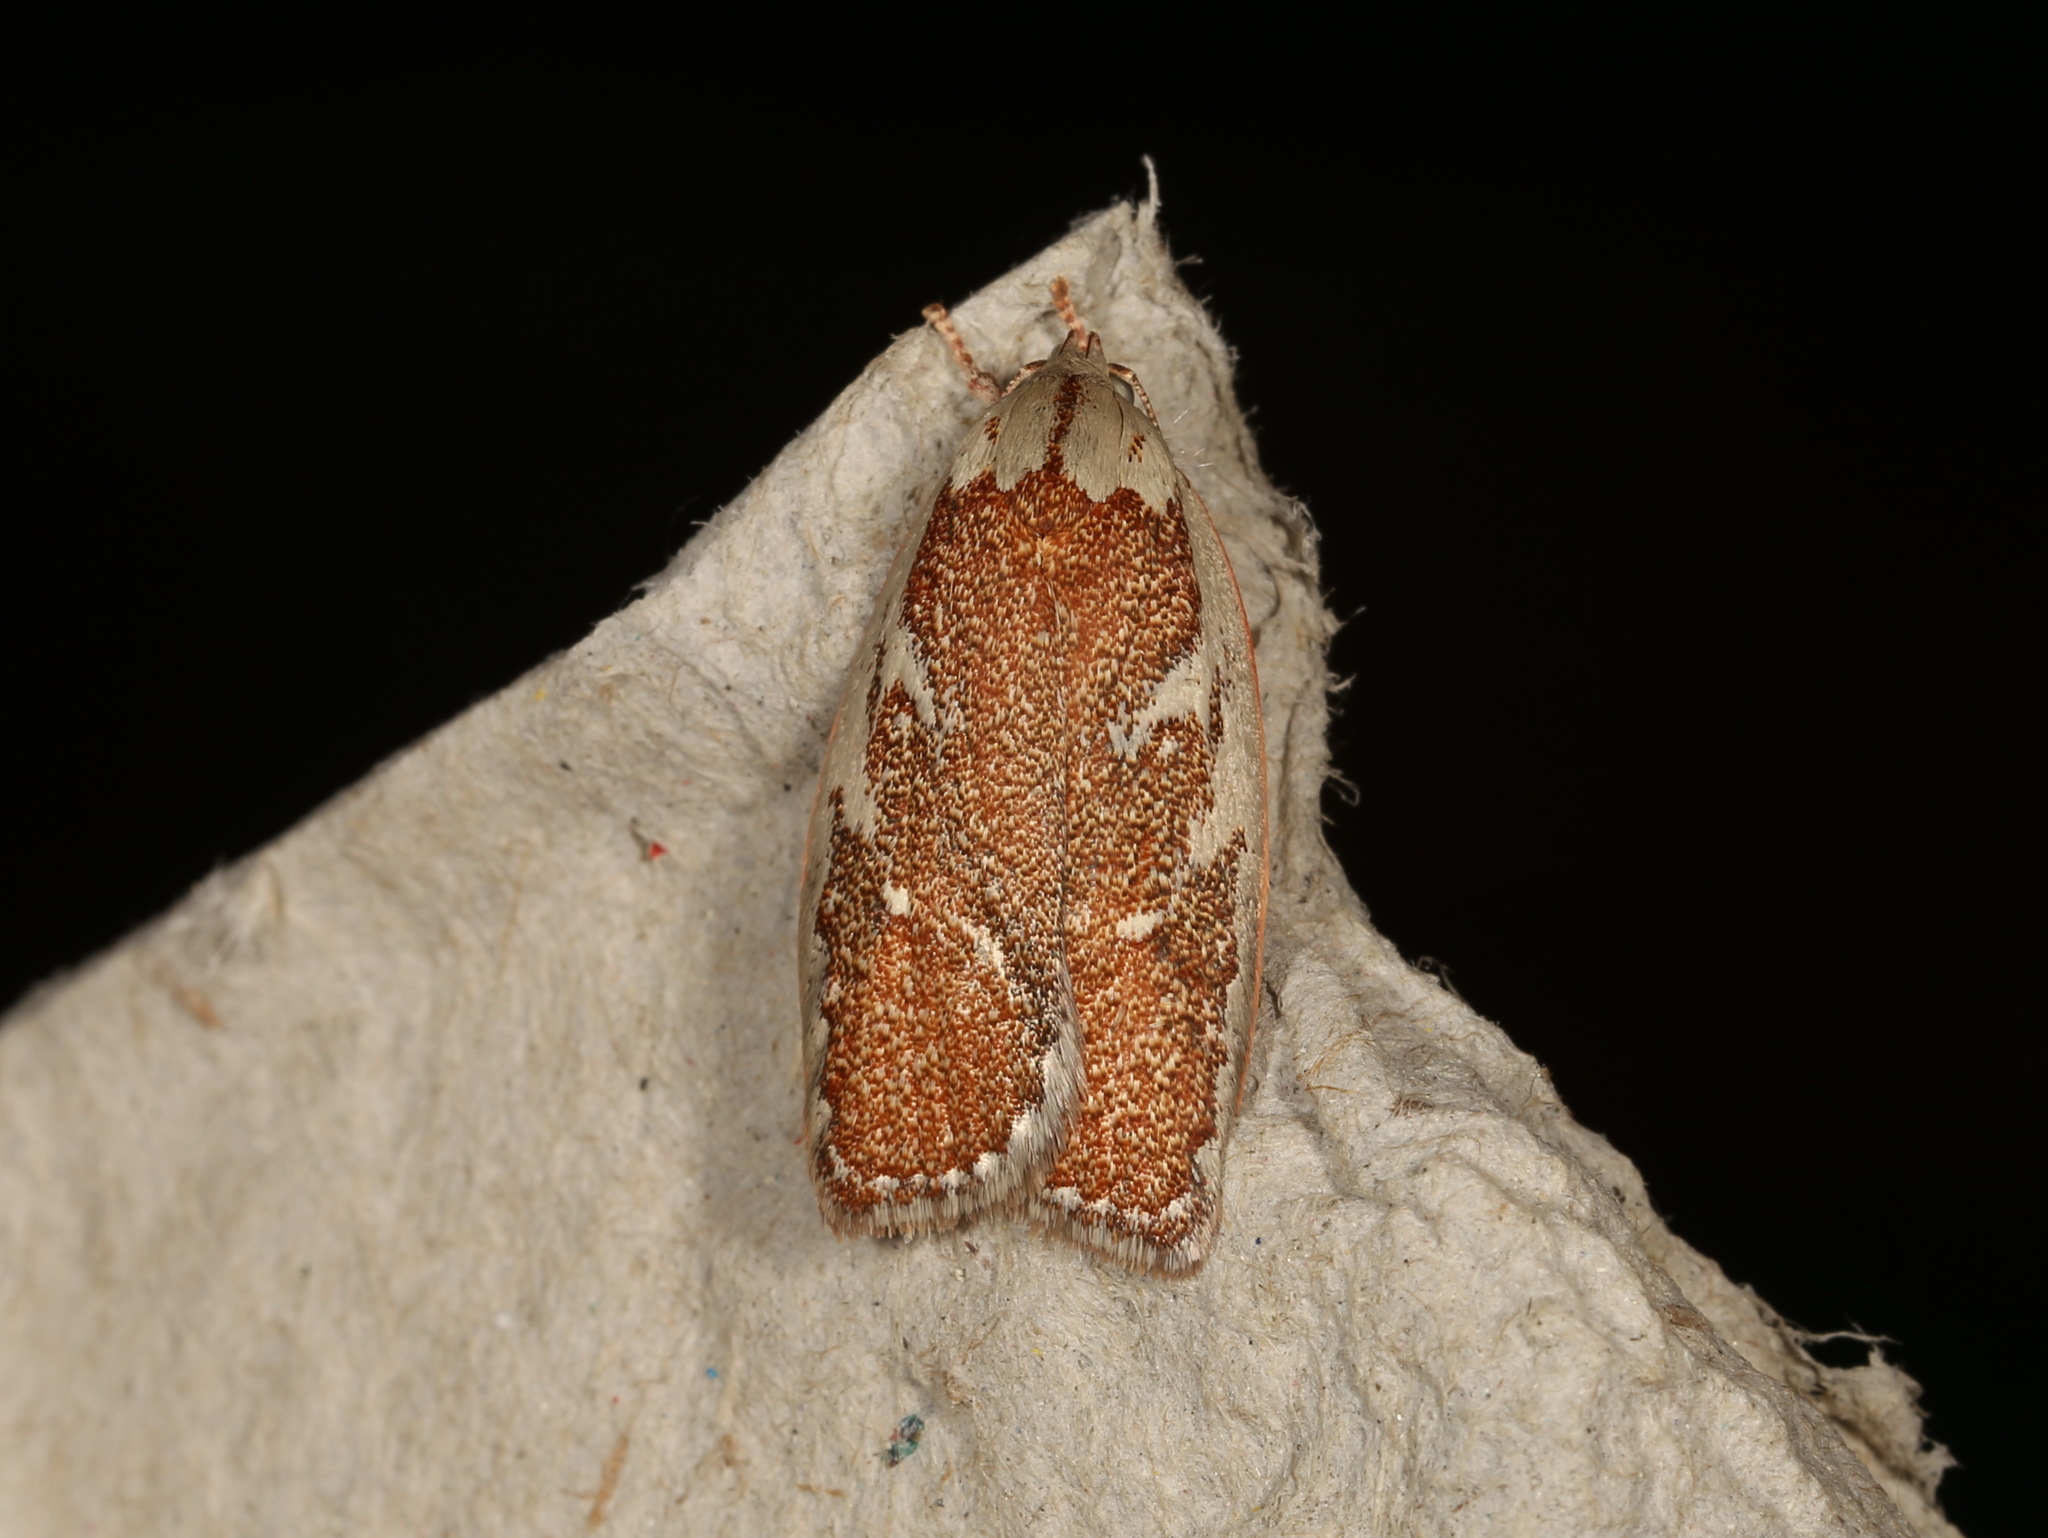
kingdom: Animalia
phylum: Arthropoda
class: Insecta
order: Lepidoptera
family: Oecophoridae
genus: Euchaetis
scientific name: Euchaetis rhizobola
